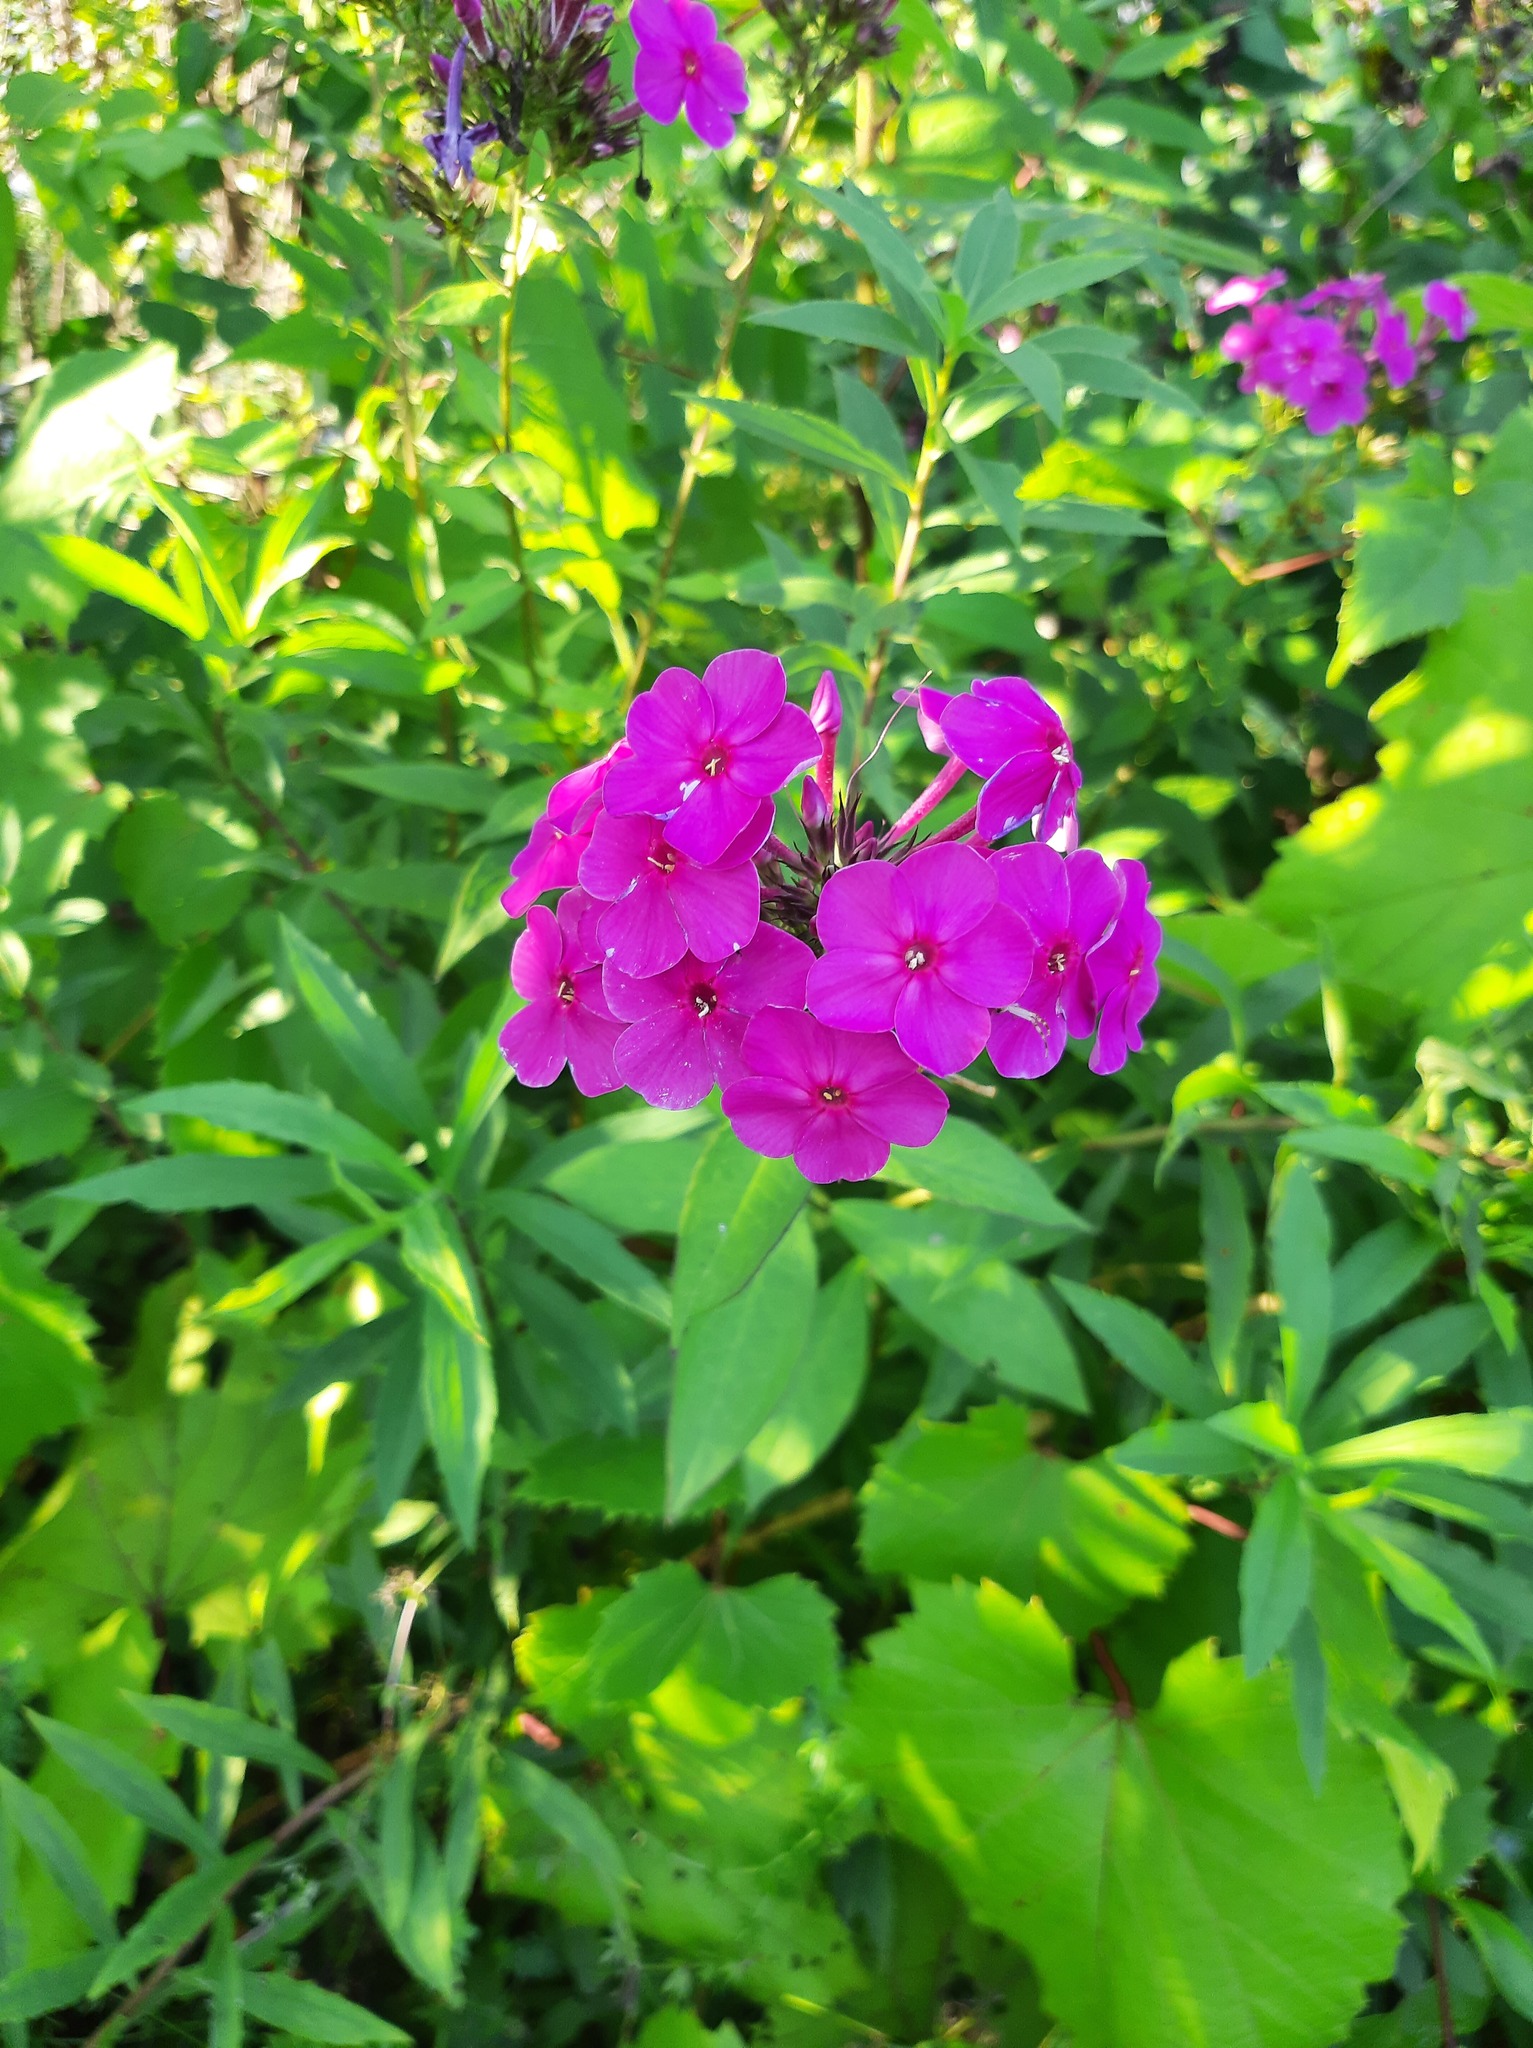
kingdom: Plantae
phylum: Tracheophyta
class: Magnoliopsida
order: Ericales
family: Polemoniaceae
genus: Phlox
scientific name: Phlox paniculata
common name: Fall phlox
